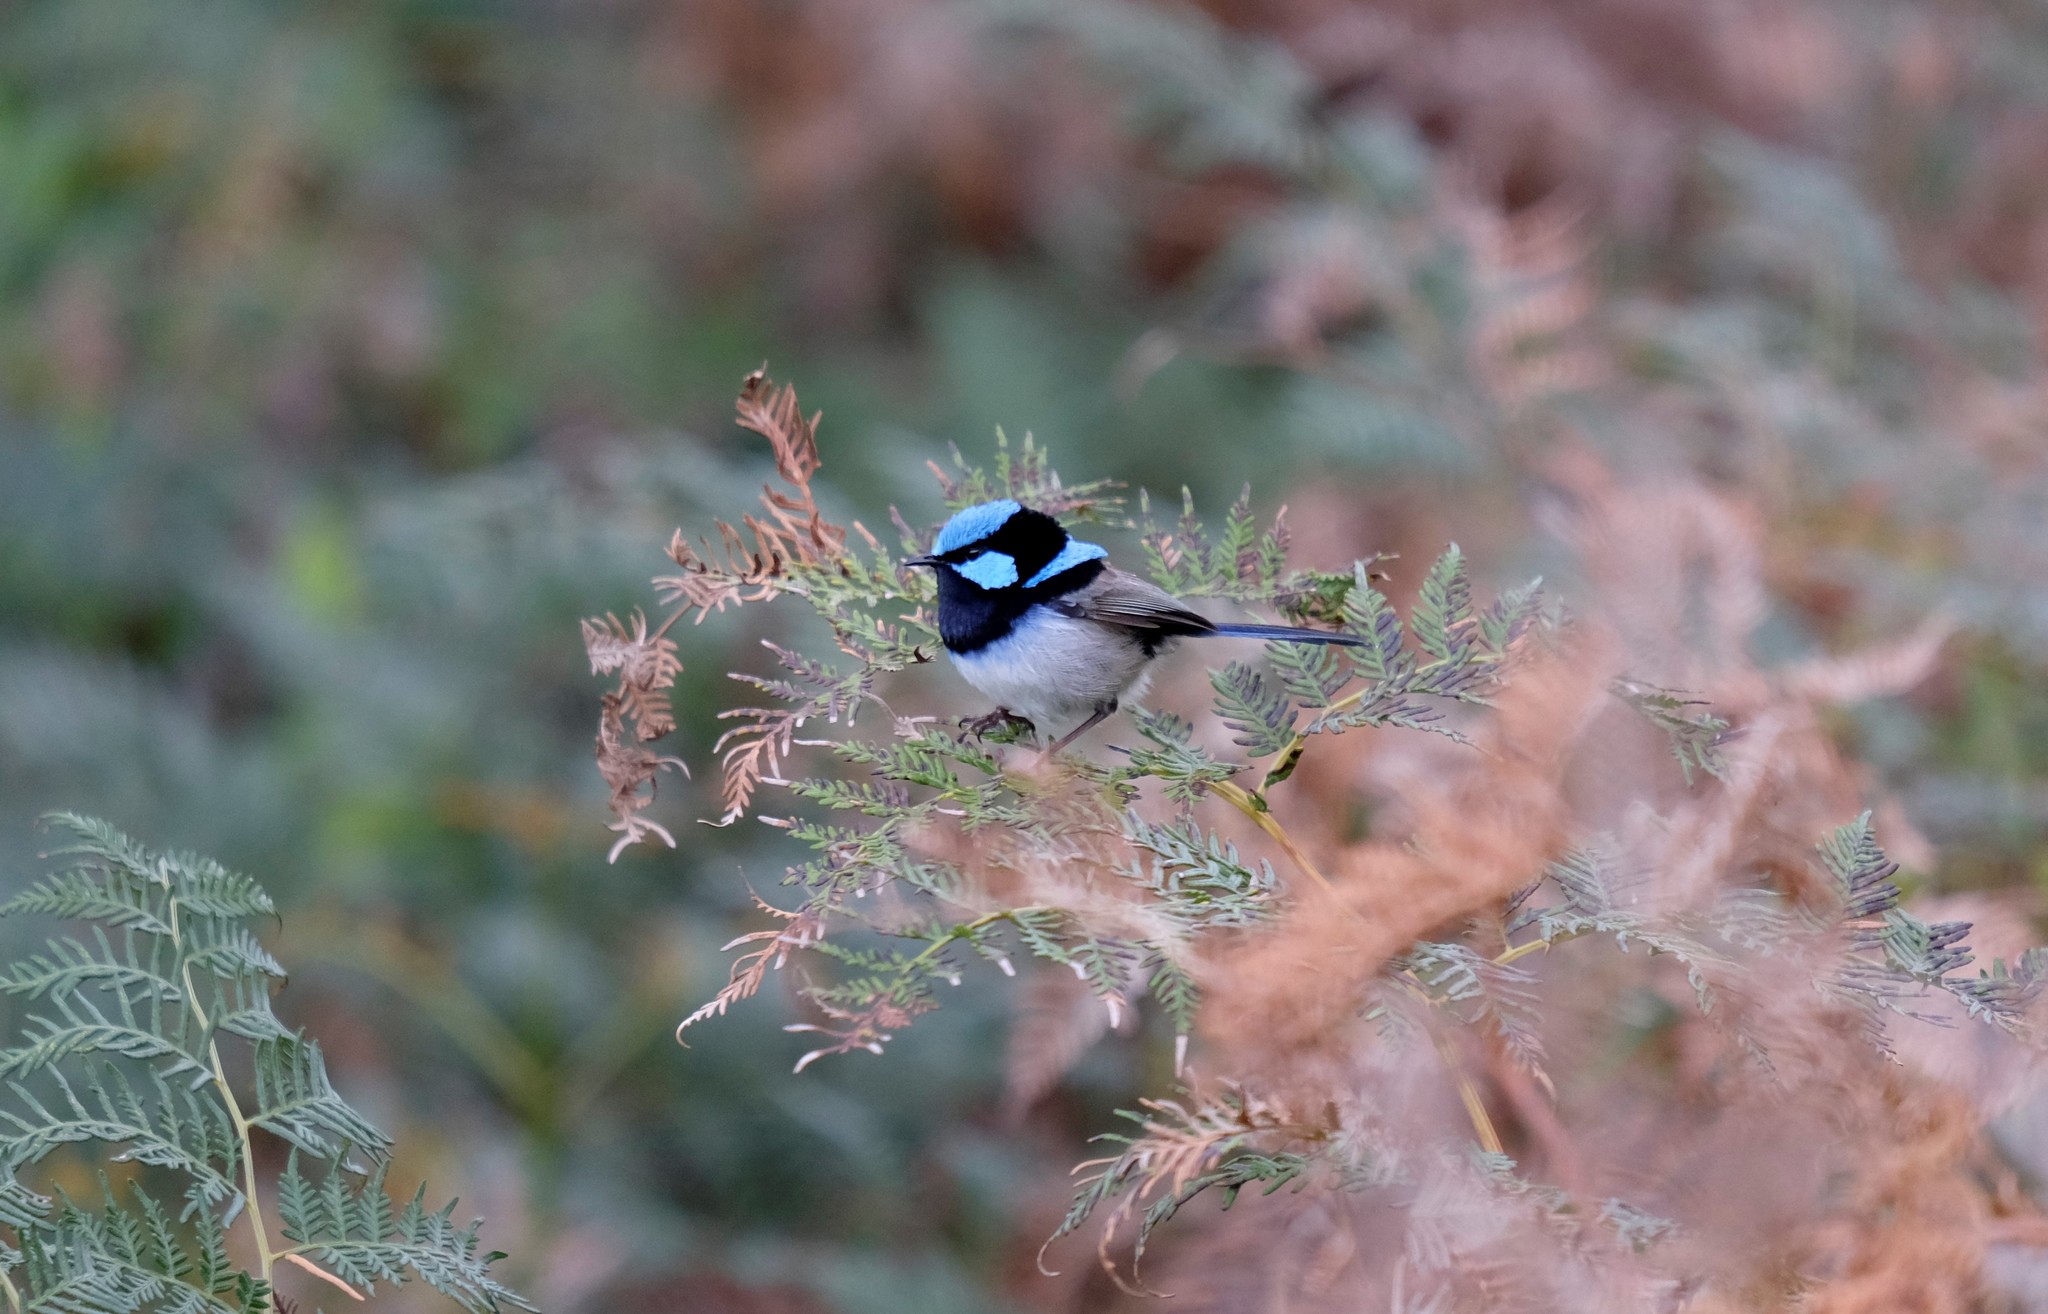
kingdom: Animalia
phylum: Chordata
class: Aves
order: Passeriformes
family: Maluridae
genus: Malurus
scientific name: Malurus cyaneus
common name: Superb fairywren
